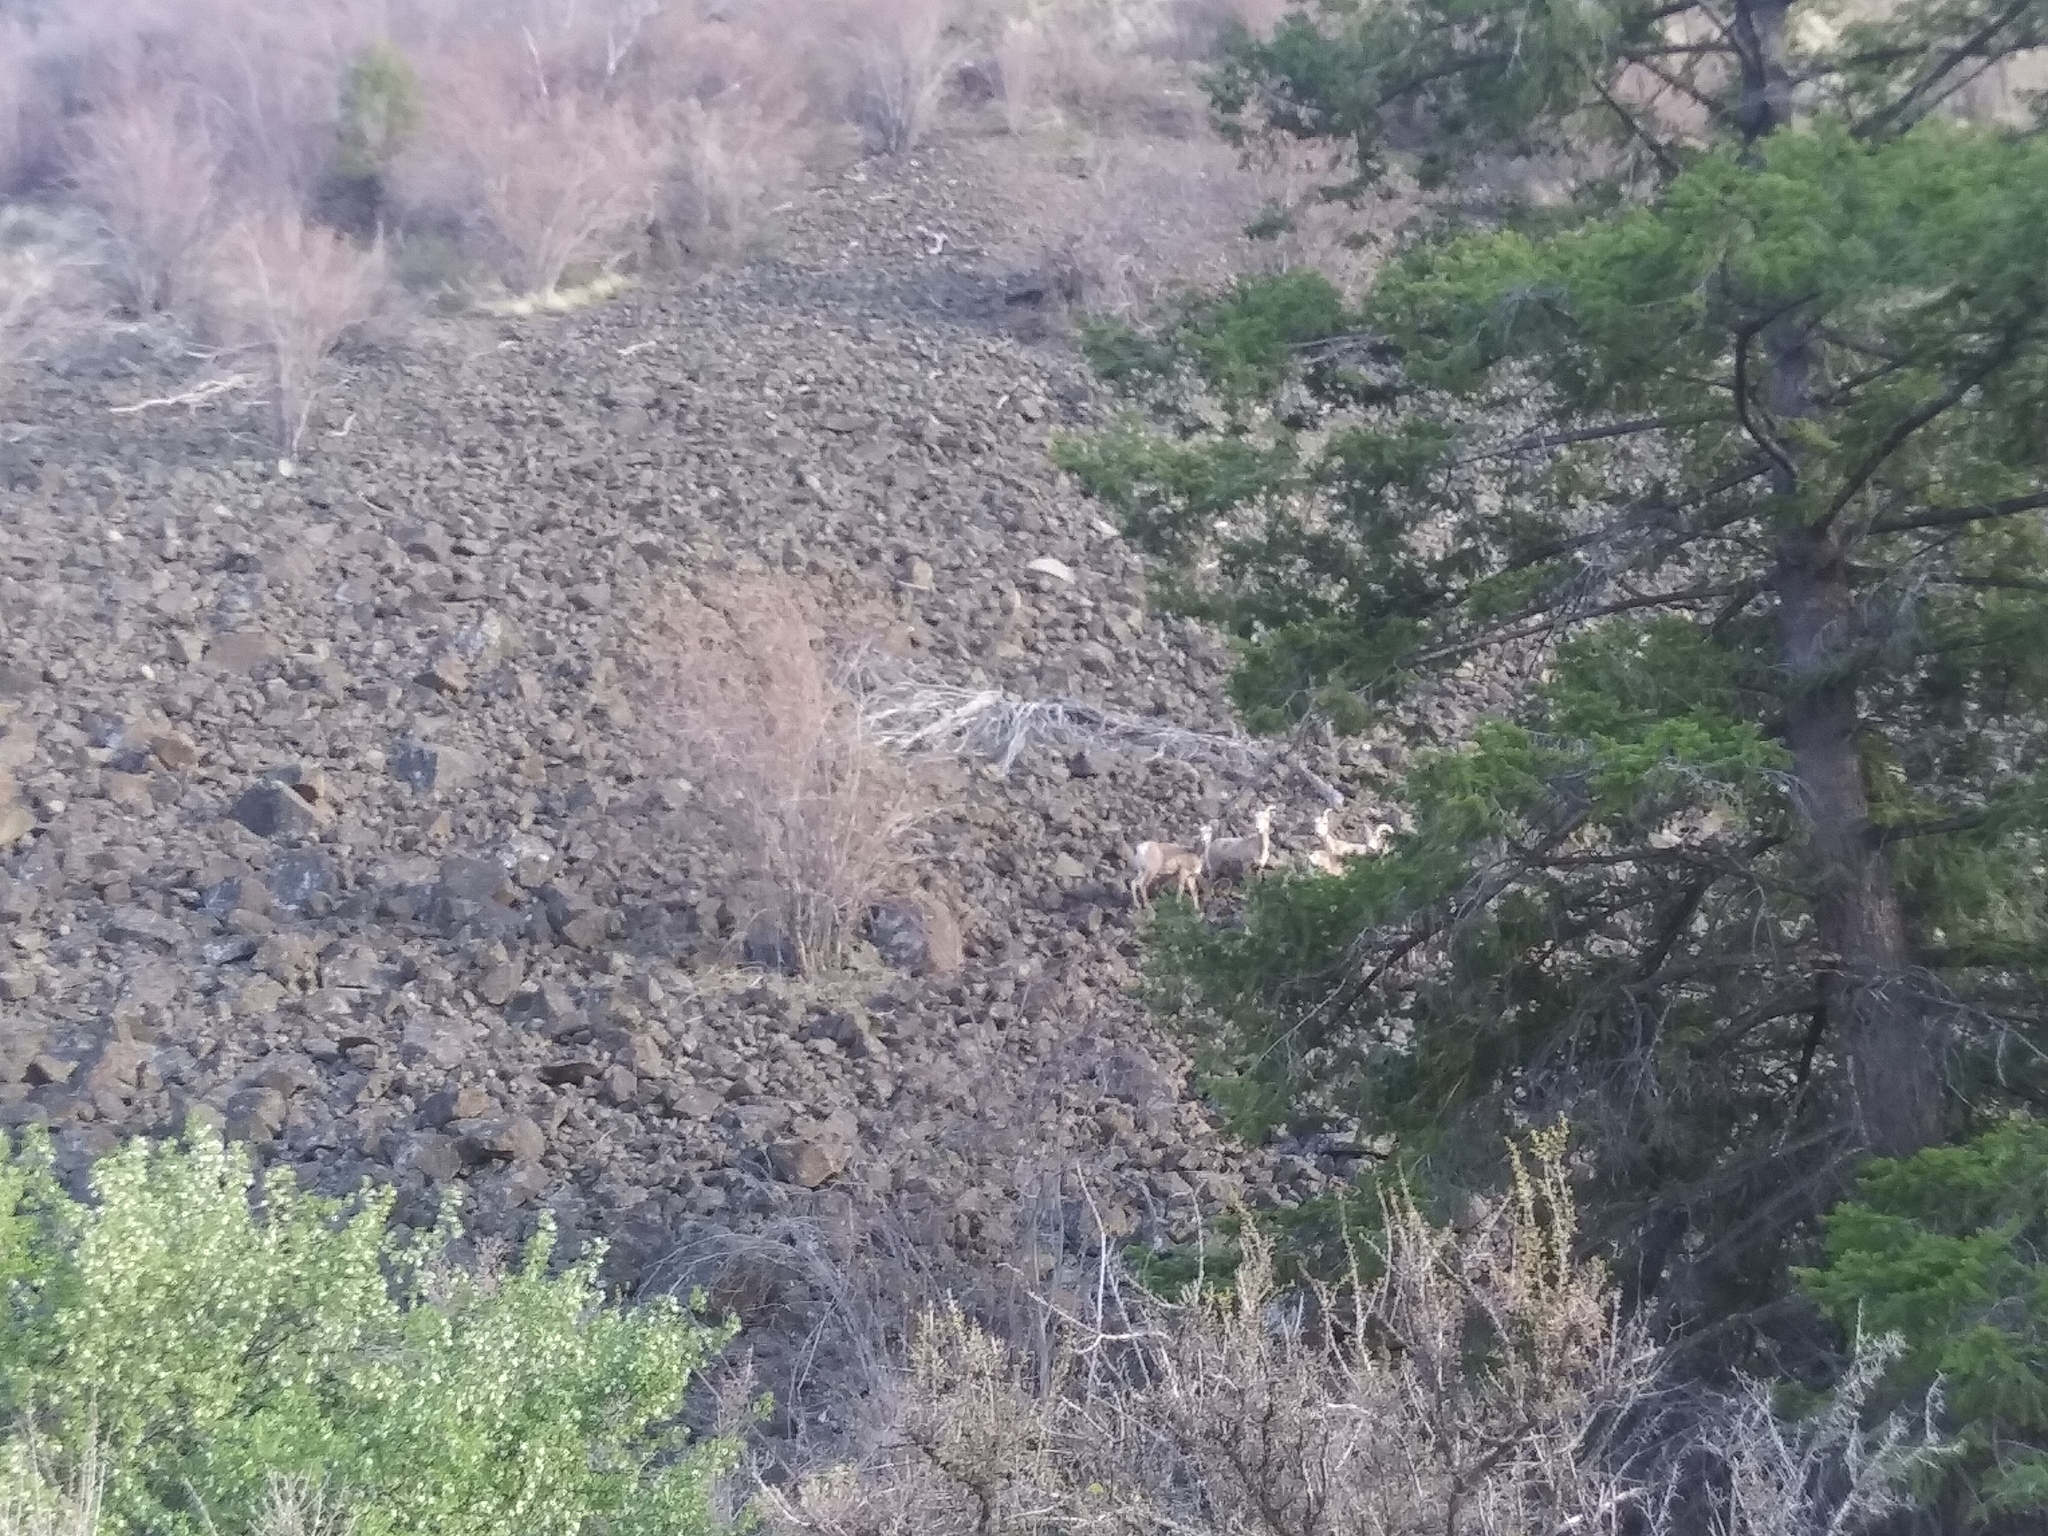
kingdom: Animalia
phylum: Chordata
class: Mammalia
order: Artiodactyla
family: Bovidae
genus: Ovis
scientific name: Ovis canadensis
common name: Bighorn sheep
